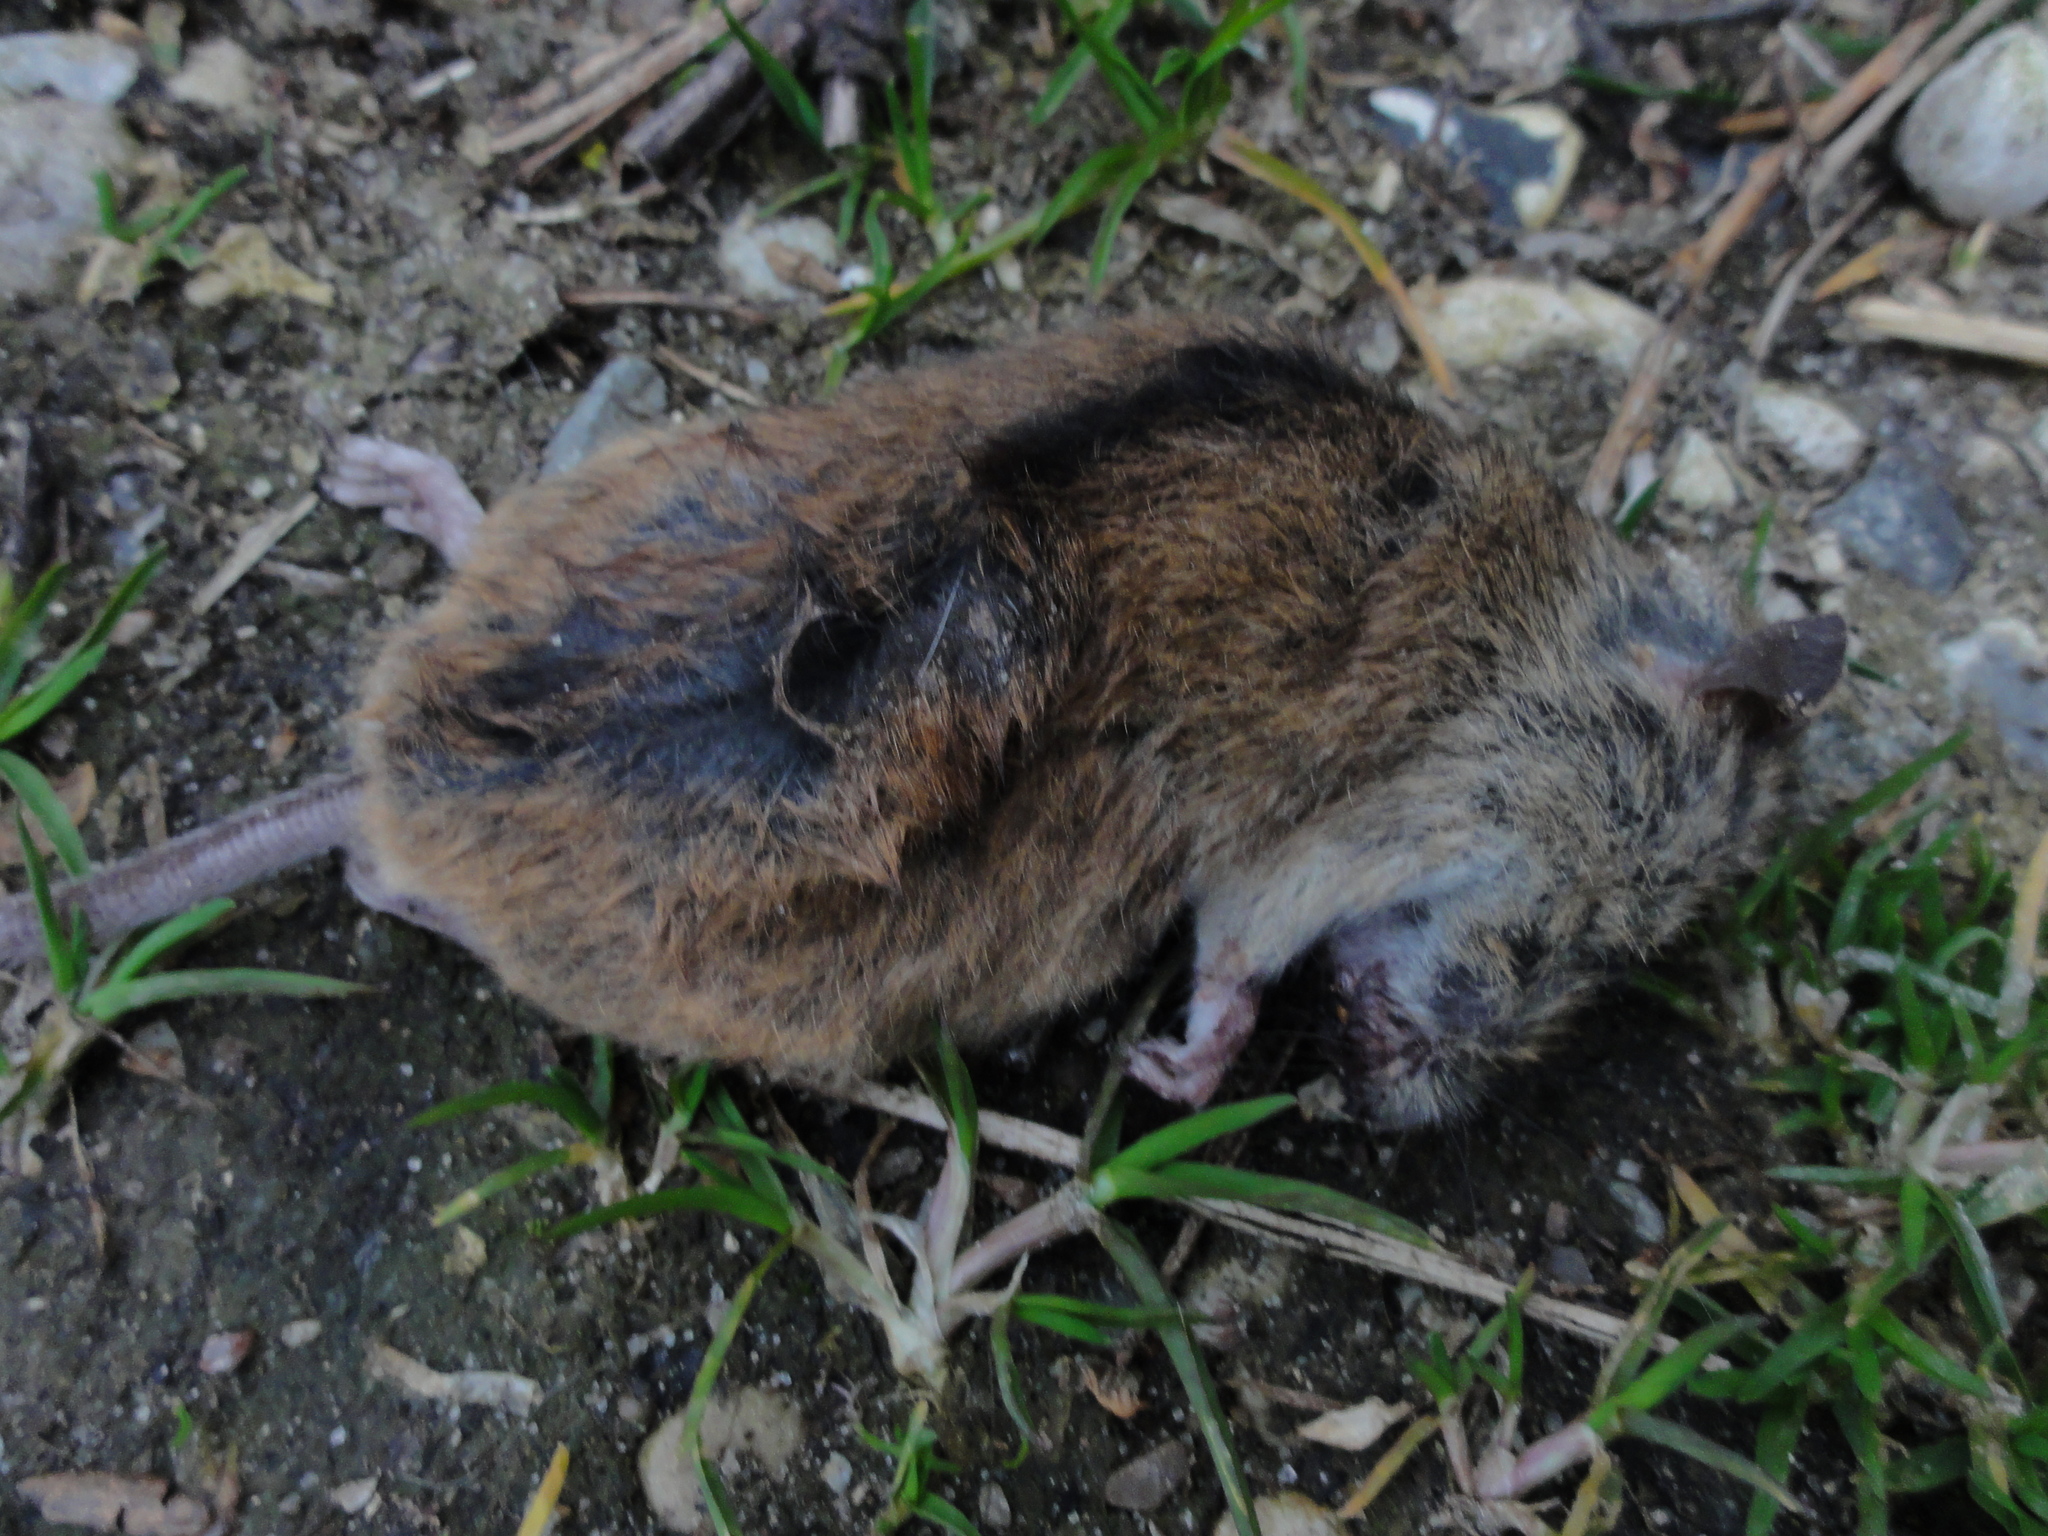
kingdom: Animalia
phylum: Chordata
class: Mammalia
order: Rodentia
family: Muridae
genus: Apodemus
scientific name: Apodemus agrarius
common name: Striped field mouse
